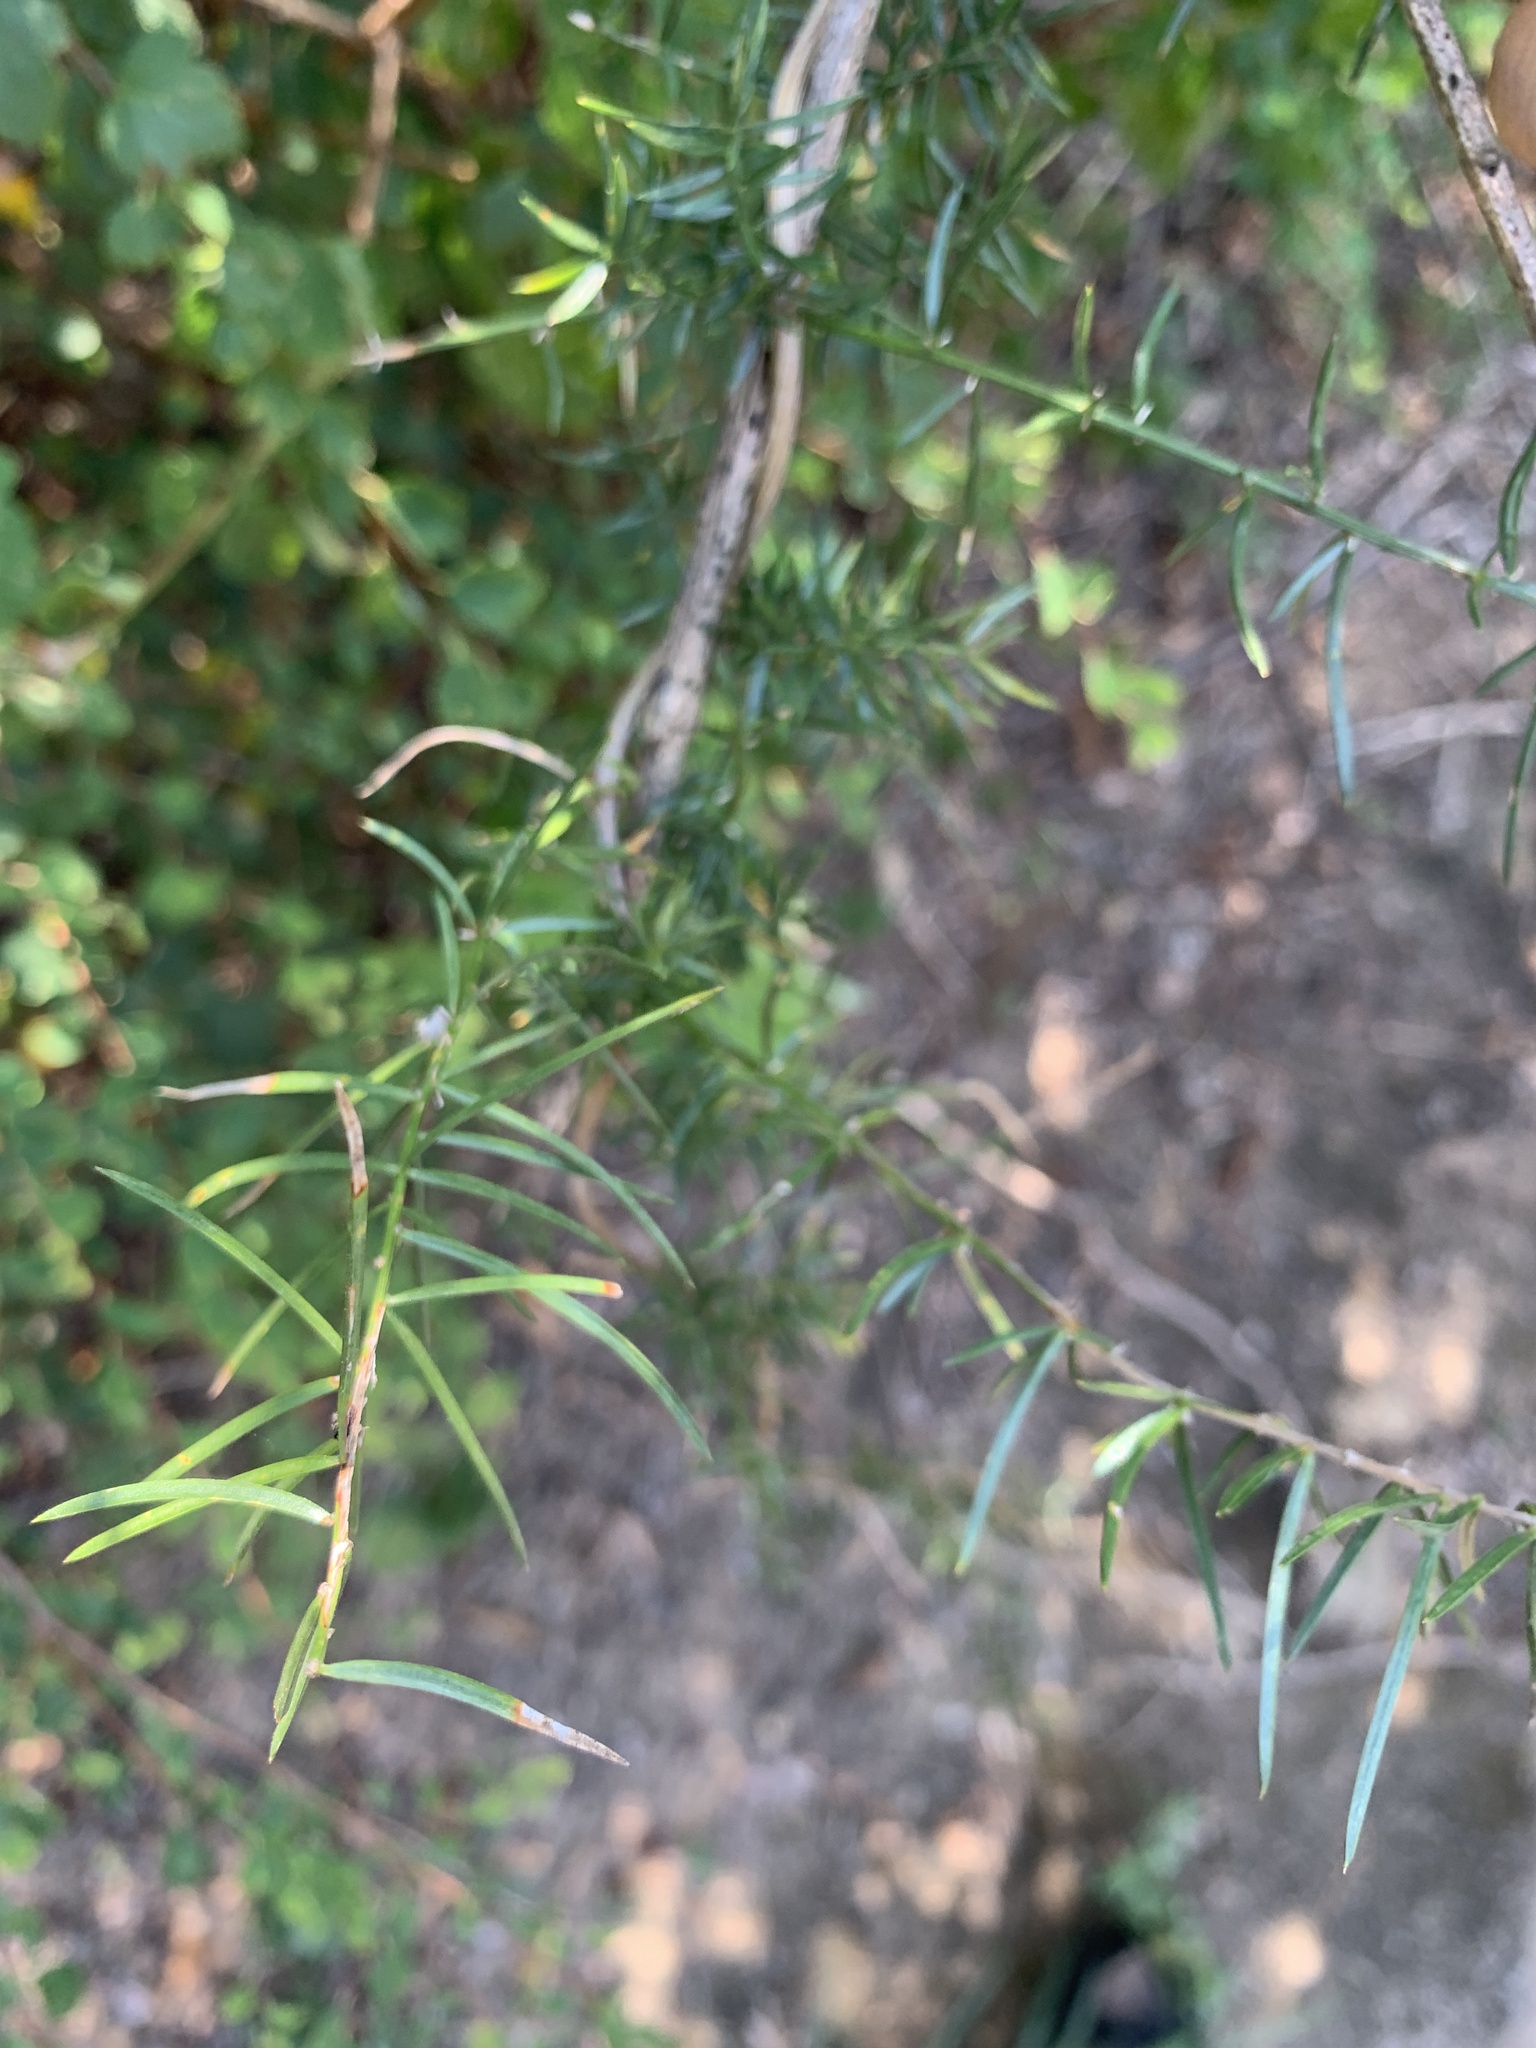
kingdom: Plantae
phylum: Tracheophyta
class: Liliopsida
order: Asparagales
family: Asparagaceae
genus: Asparagus
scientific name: Asparagus cochinchinensis
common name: Chinese asparagus
